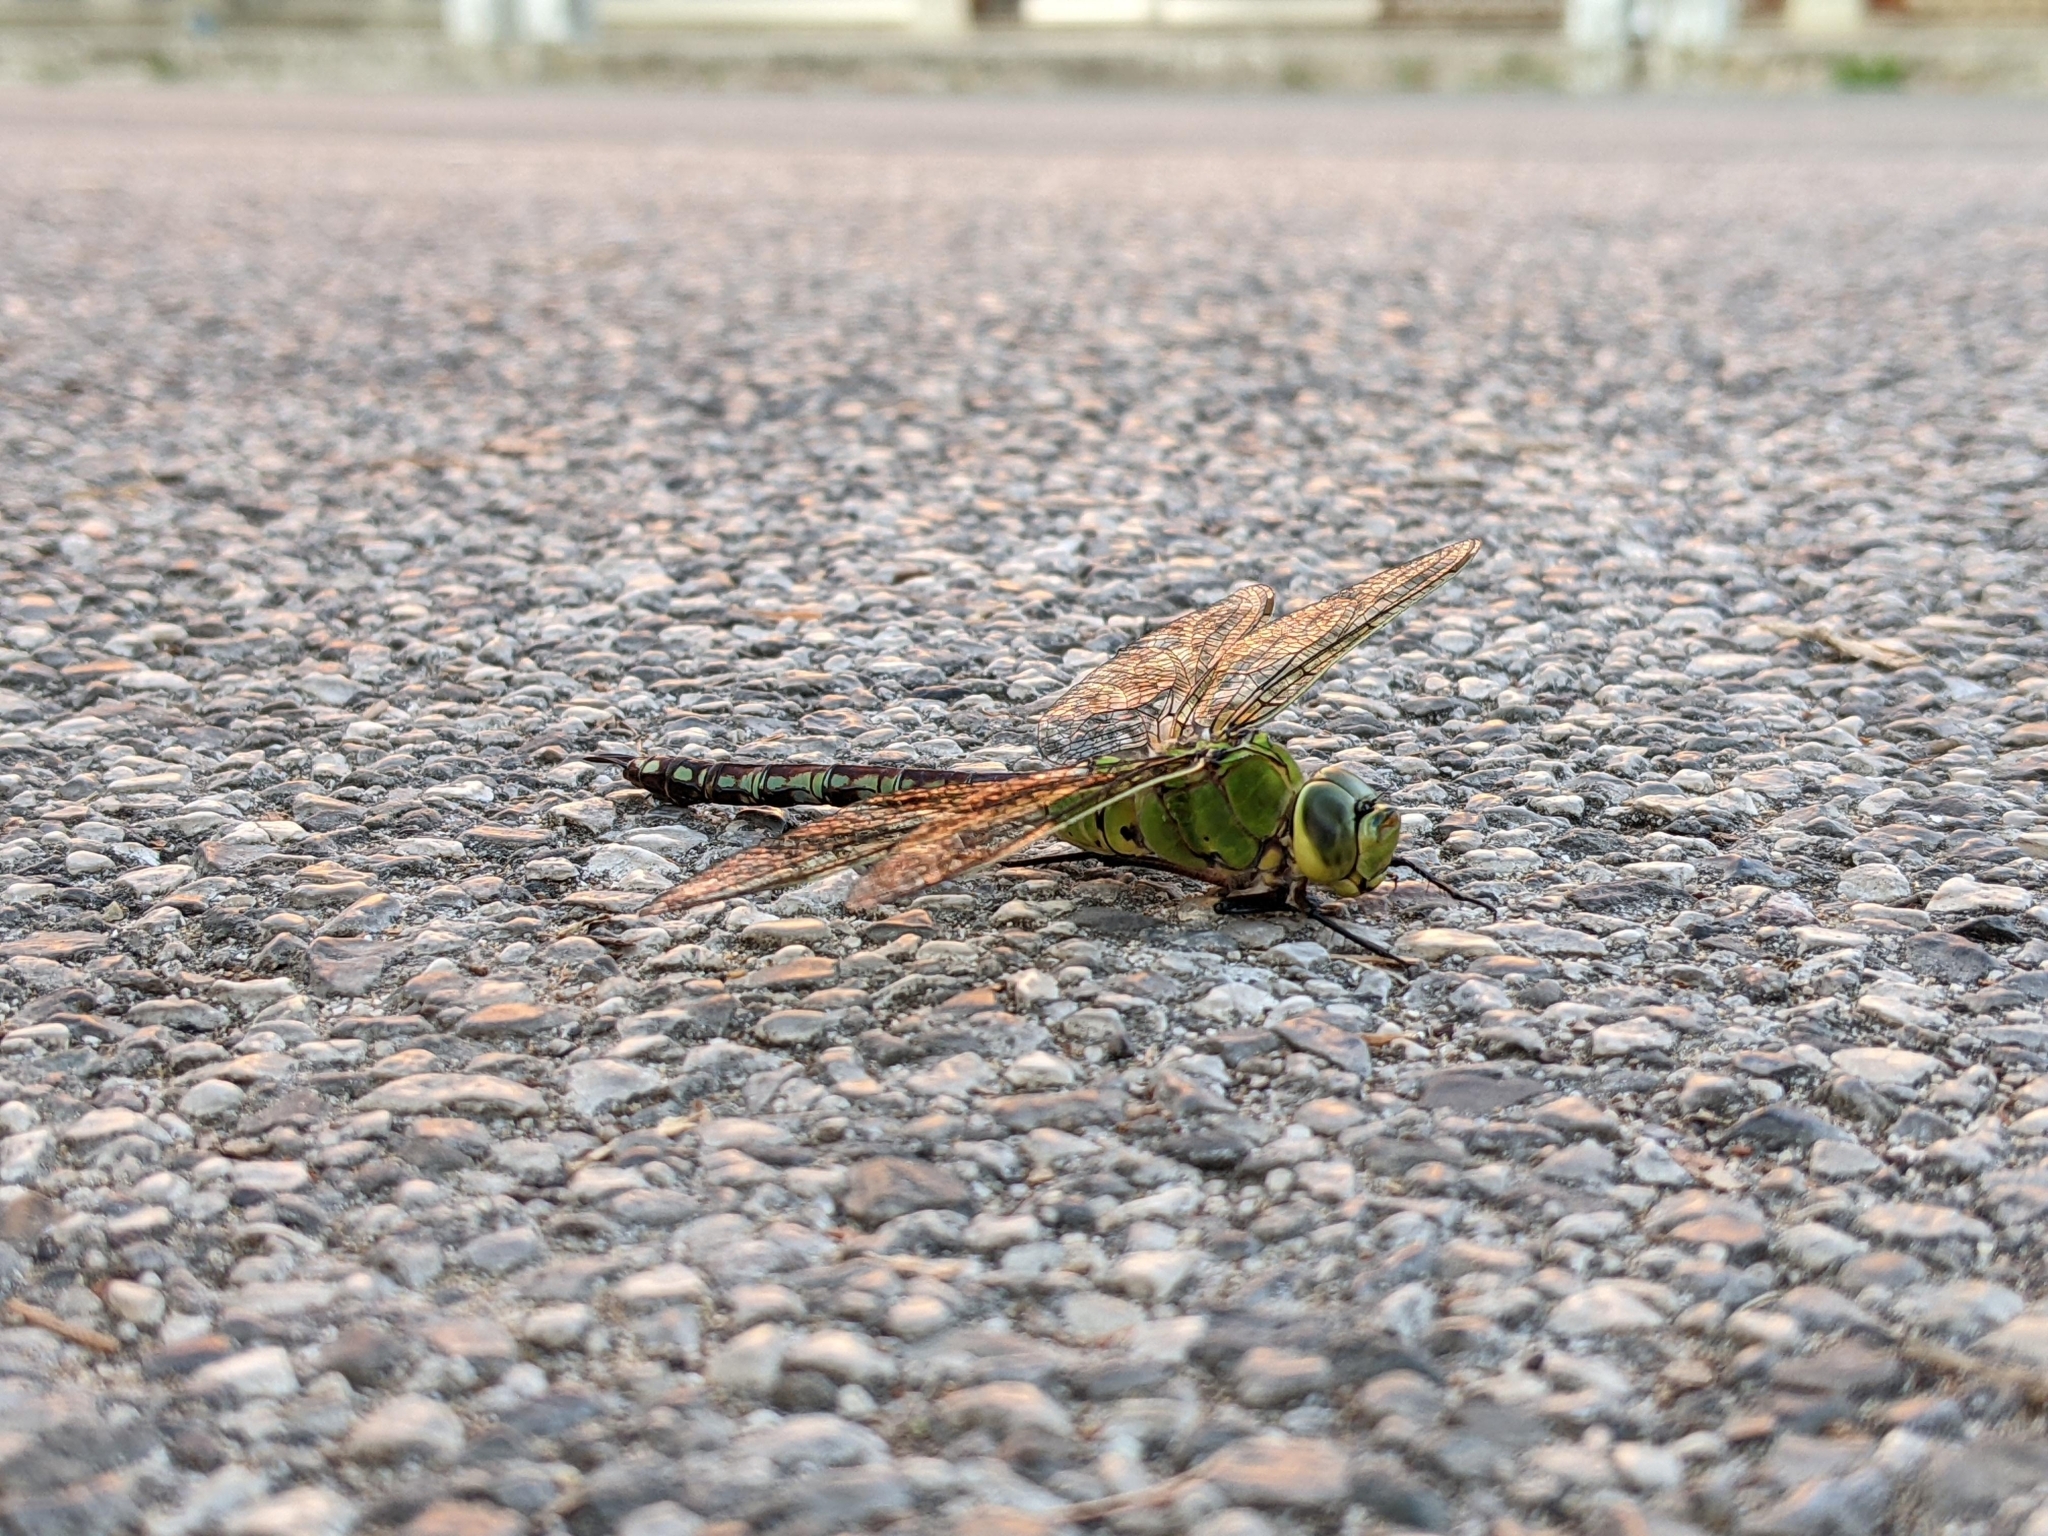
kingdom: Animalia
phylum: Arthropoda
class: Insecta
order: Odonata
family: Aeshnidae
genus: Anax
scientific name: Anax imperator
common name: Emperor dragonfly
